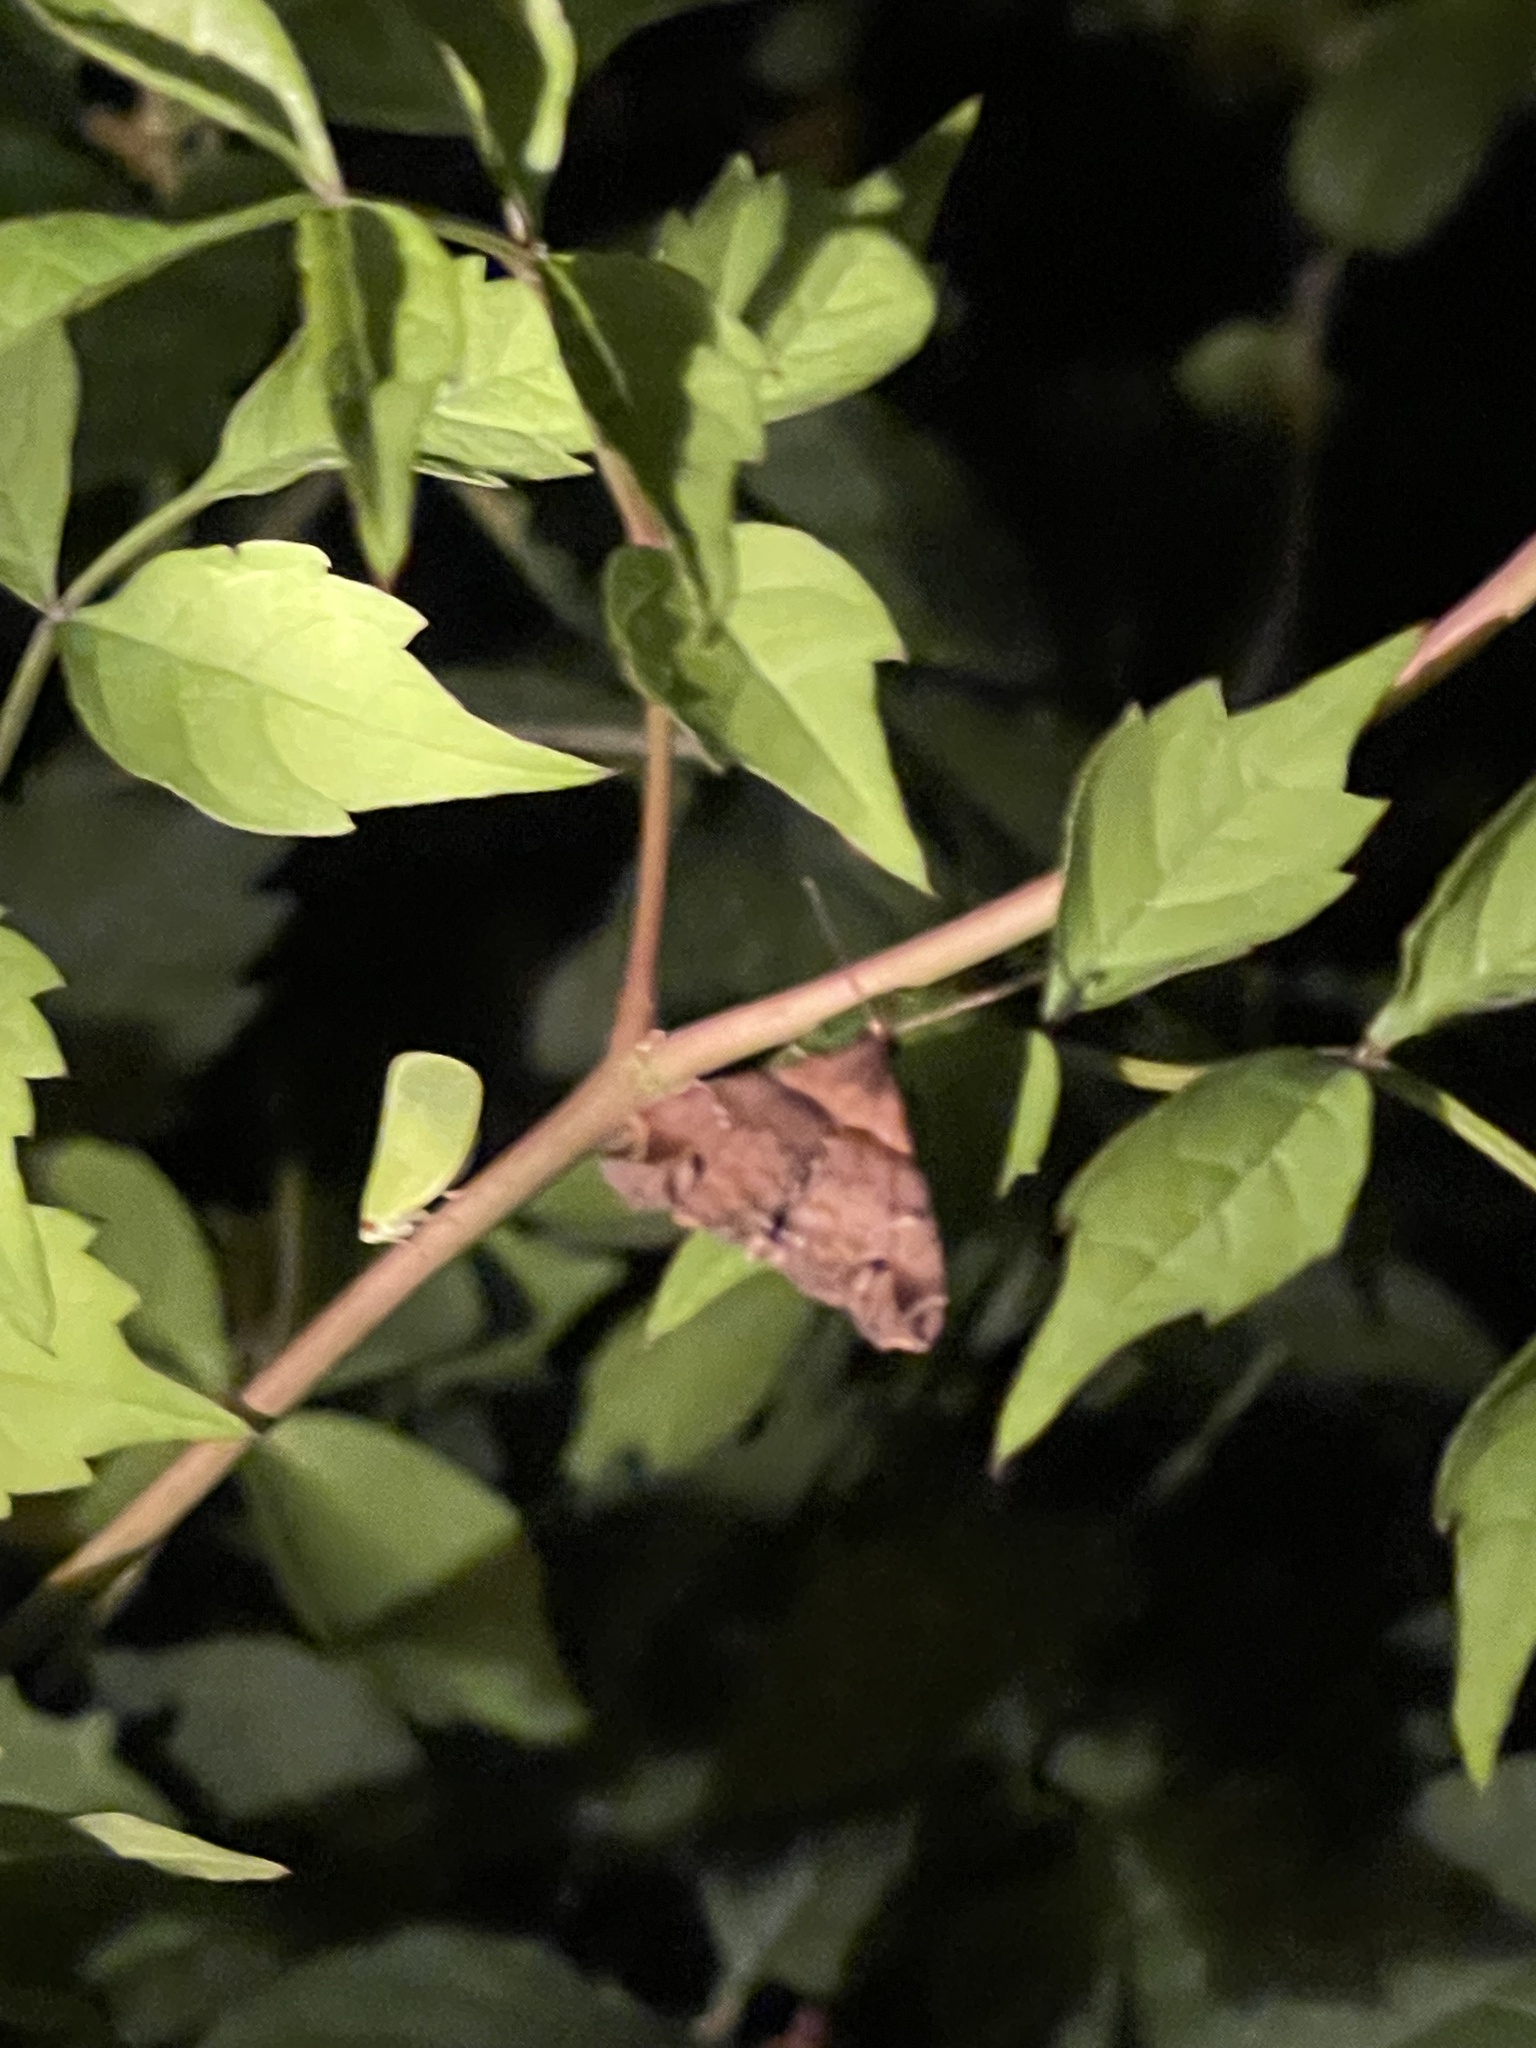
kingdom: Animalia
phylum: Arthropoda
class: Insecta
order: Lepidoptera
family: Erebidae
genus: Lascoria
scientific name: Lascoria ambigualis
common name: Ambiguous moth
